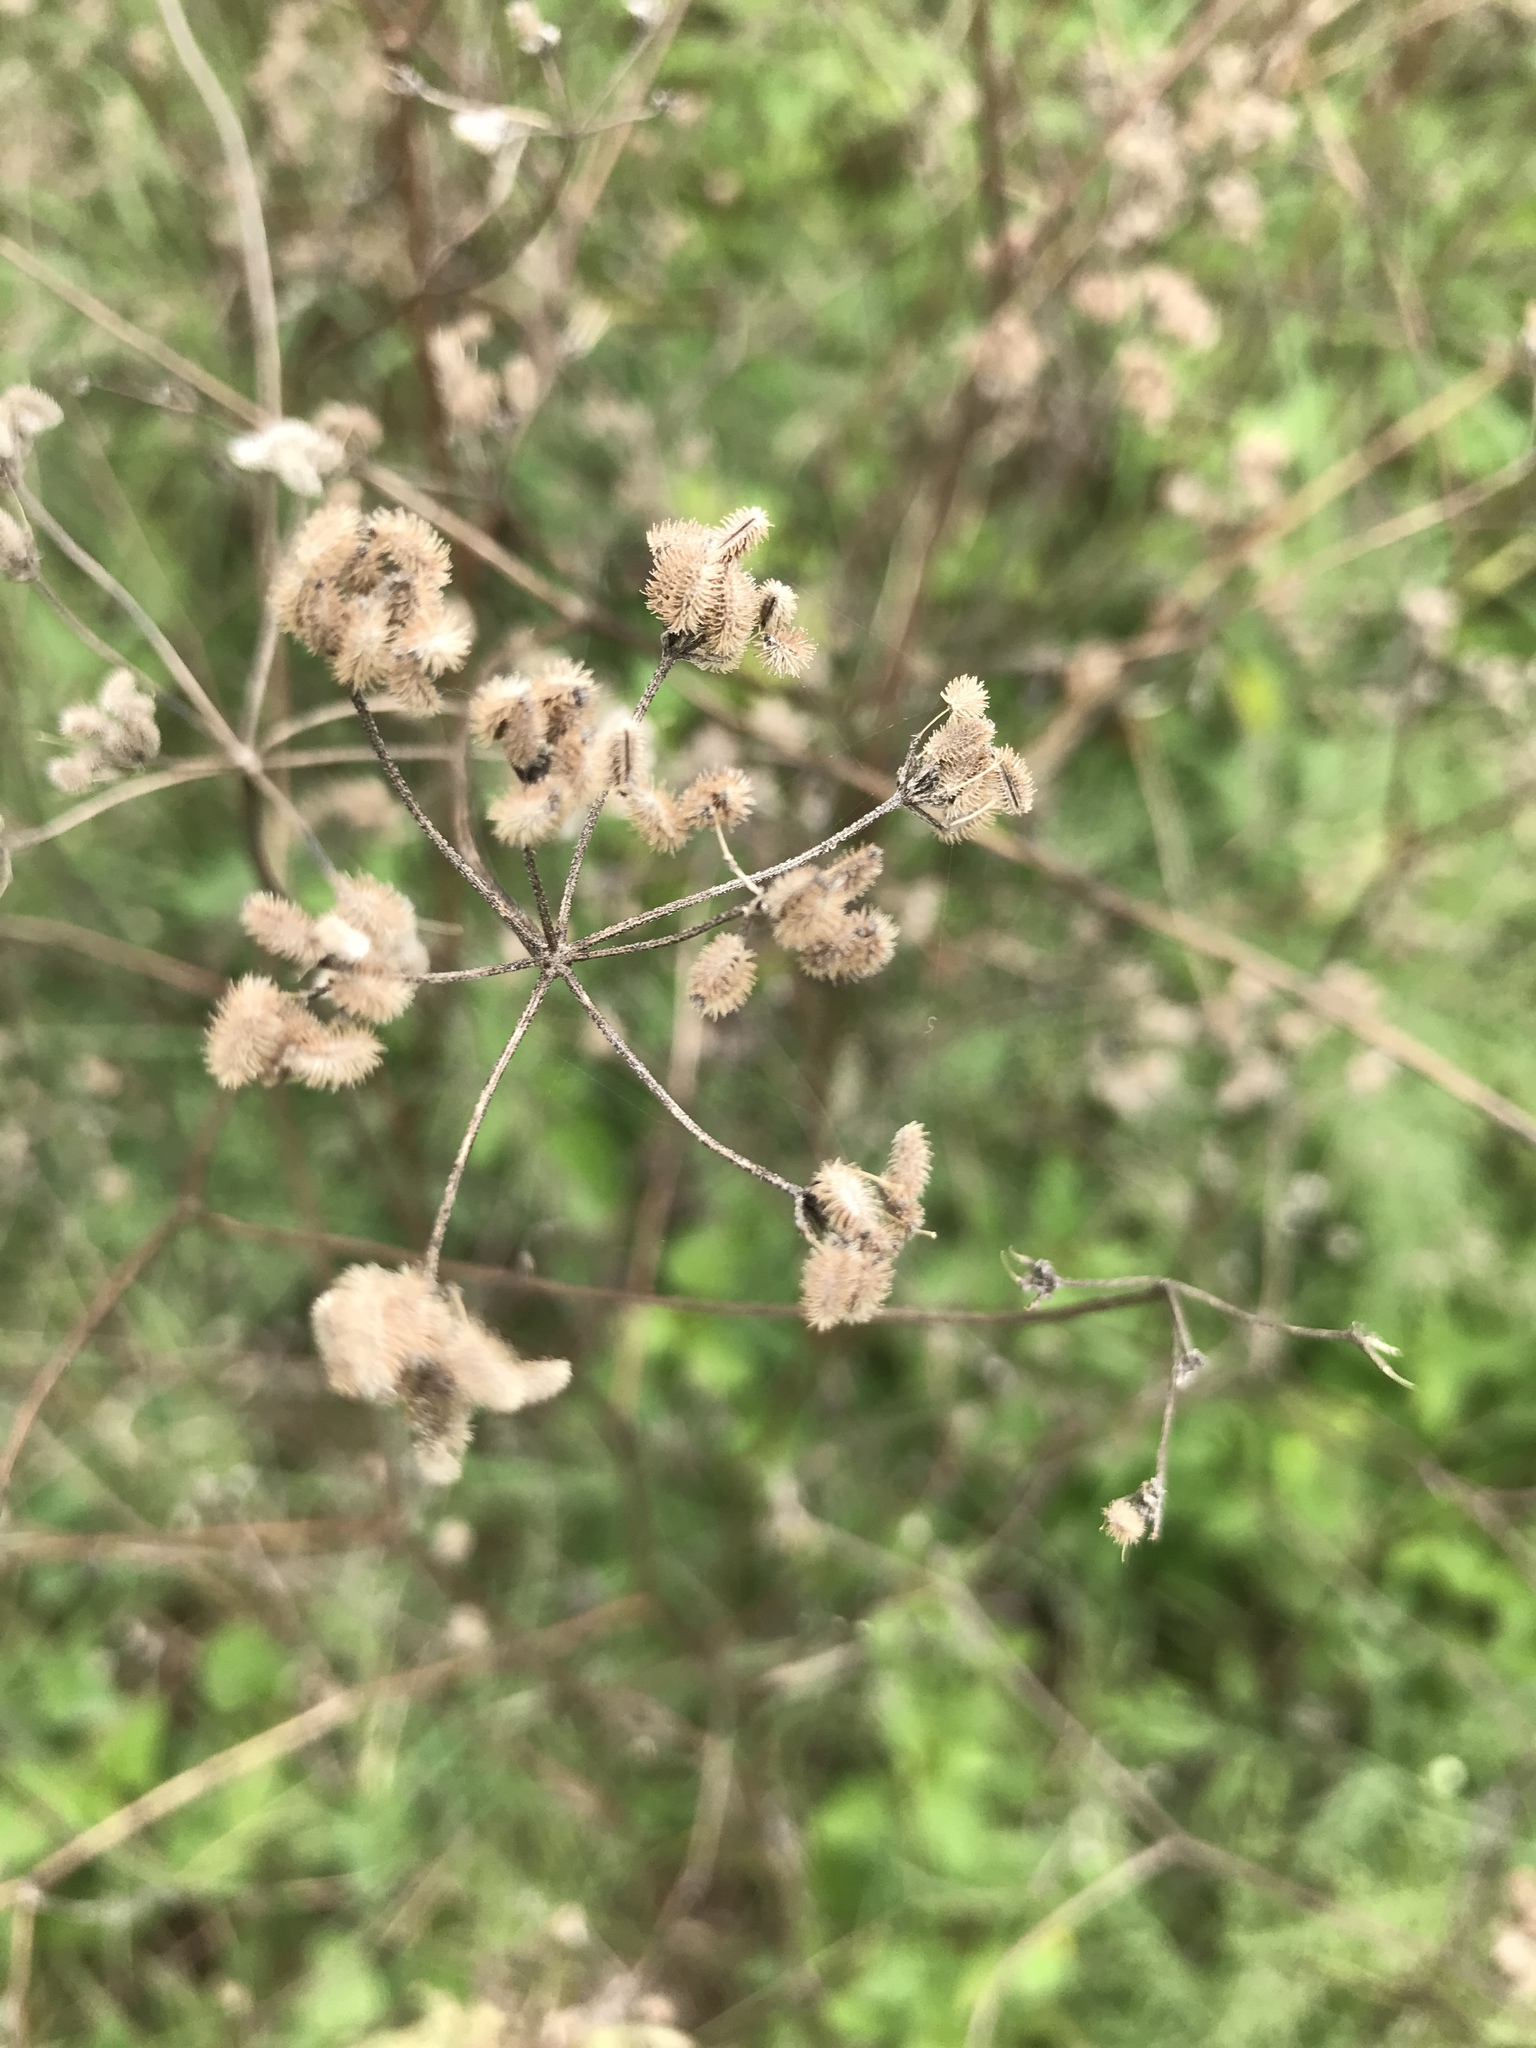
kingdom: Plantae
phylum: Tracheophyta
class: Magnoliopsida
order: Apiales
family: Apiaceae
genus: Torilis
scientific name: Torilis arvensis
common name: Spreading hedge-parsley
